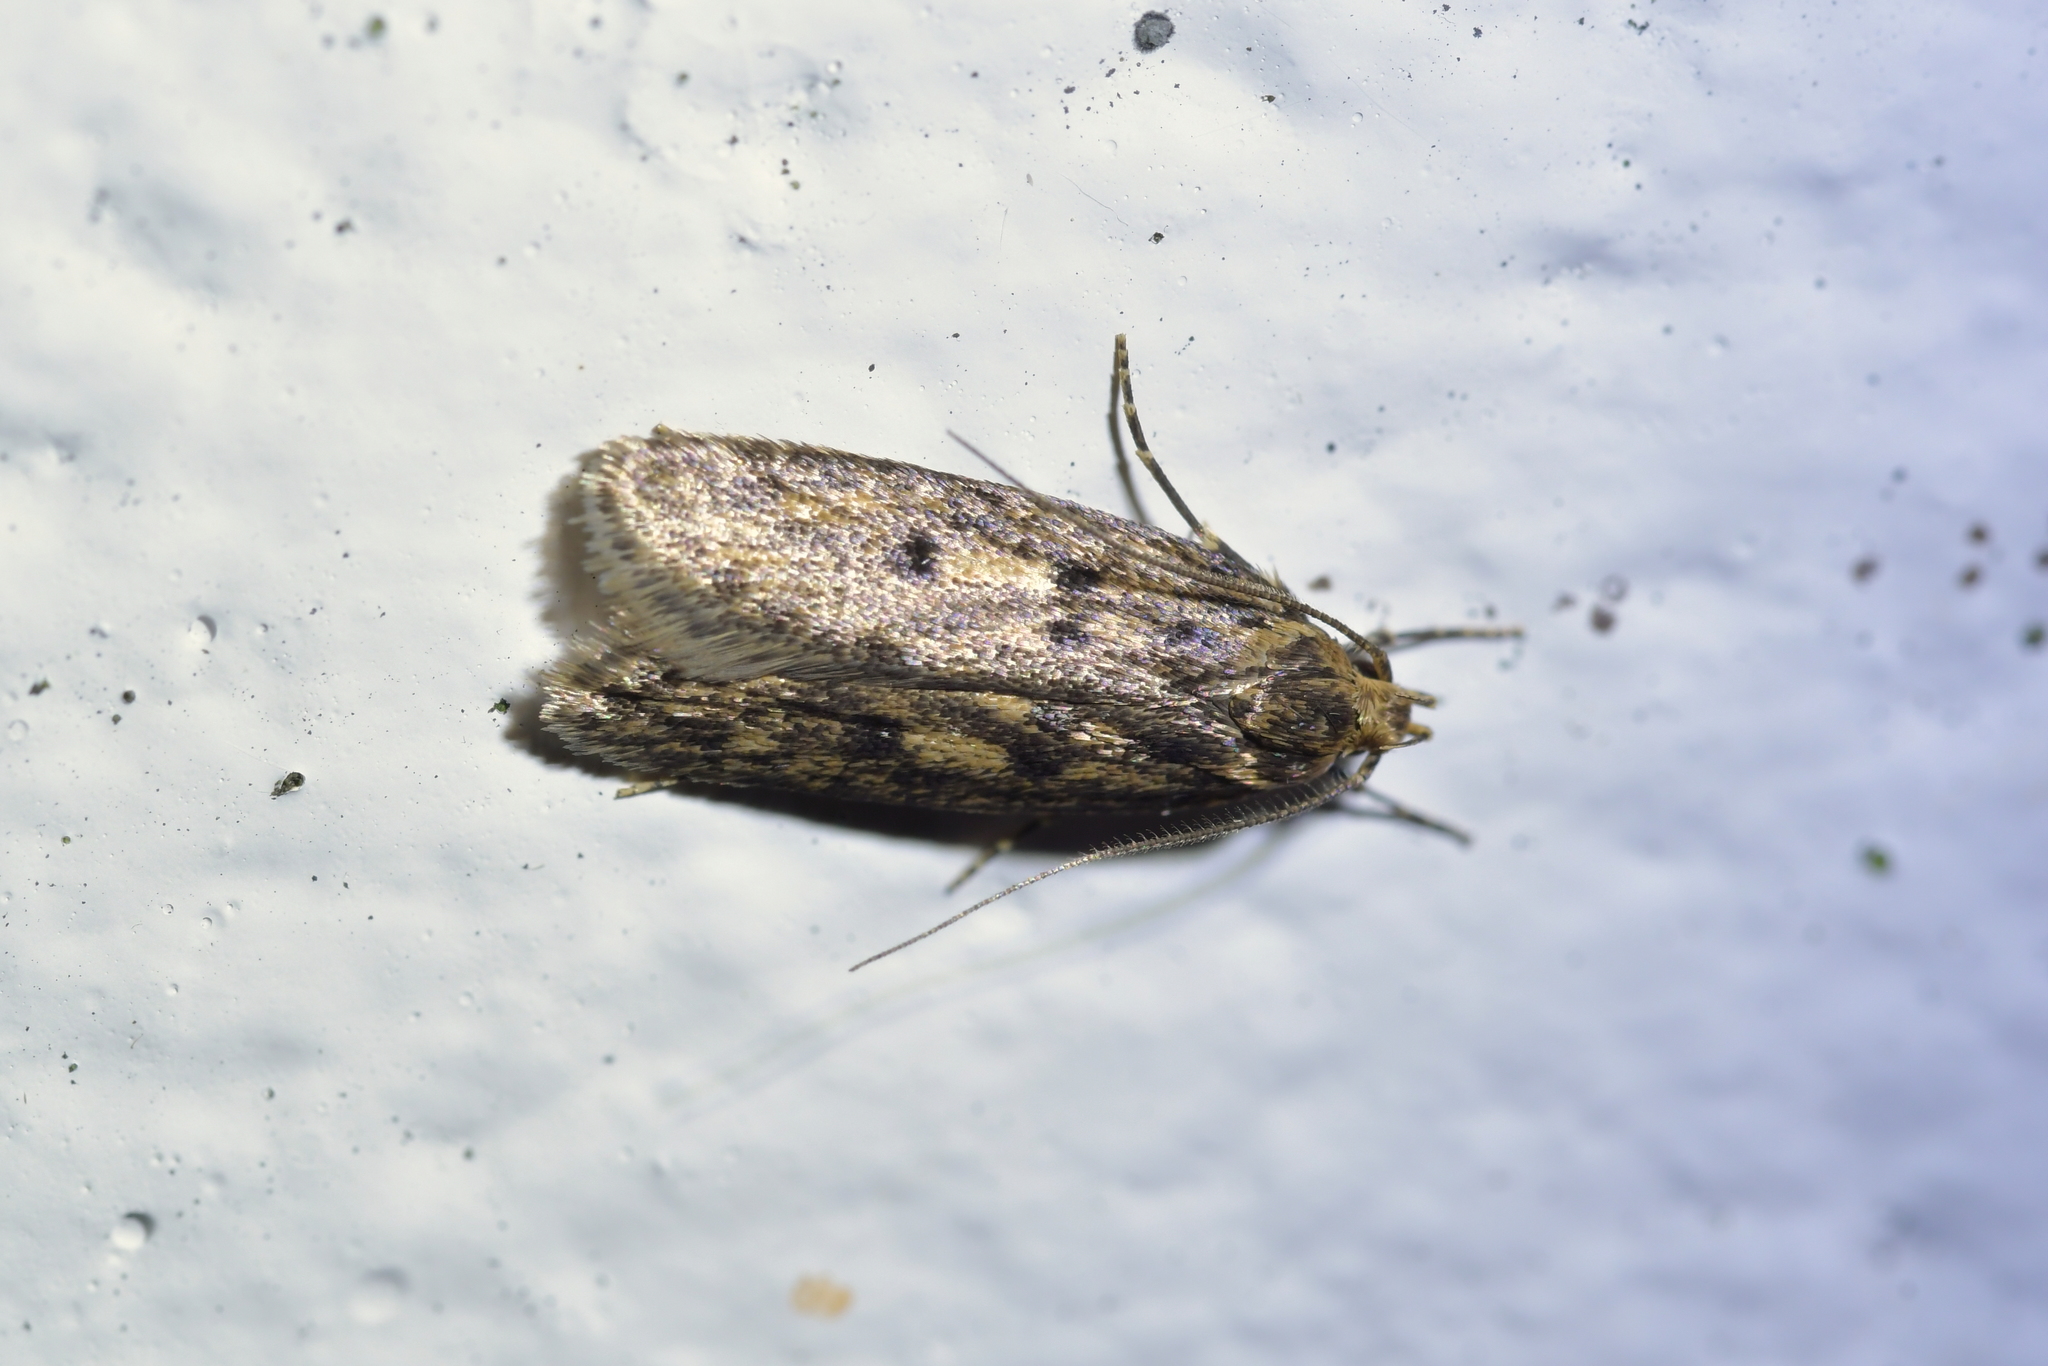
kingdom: Animalia
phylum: Arthropoda
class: Insecta
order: Lepidoptera
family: Oecophoridae
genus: Hofmannophila
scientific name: Hofmannophila pseudospretella
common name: Brown house moth
